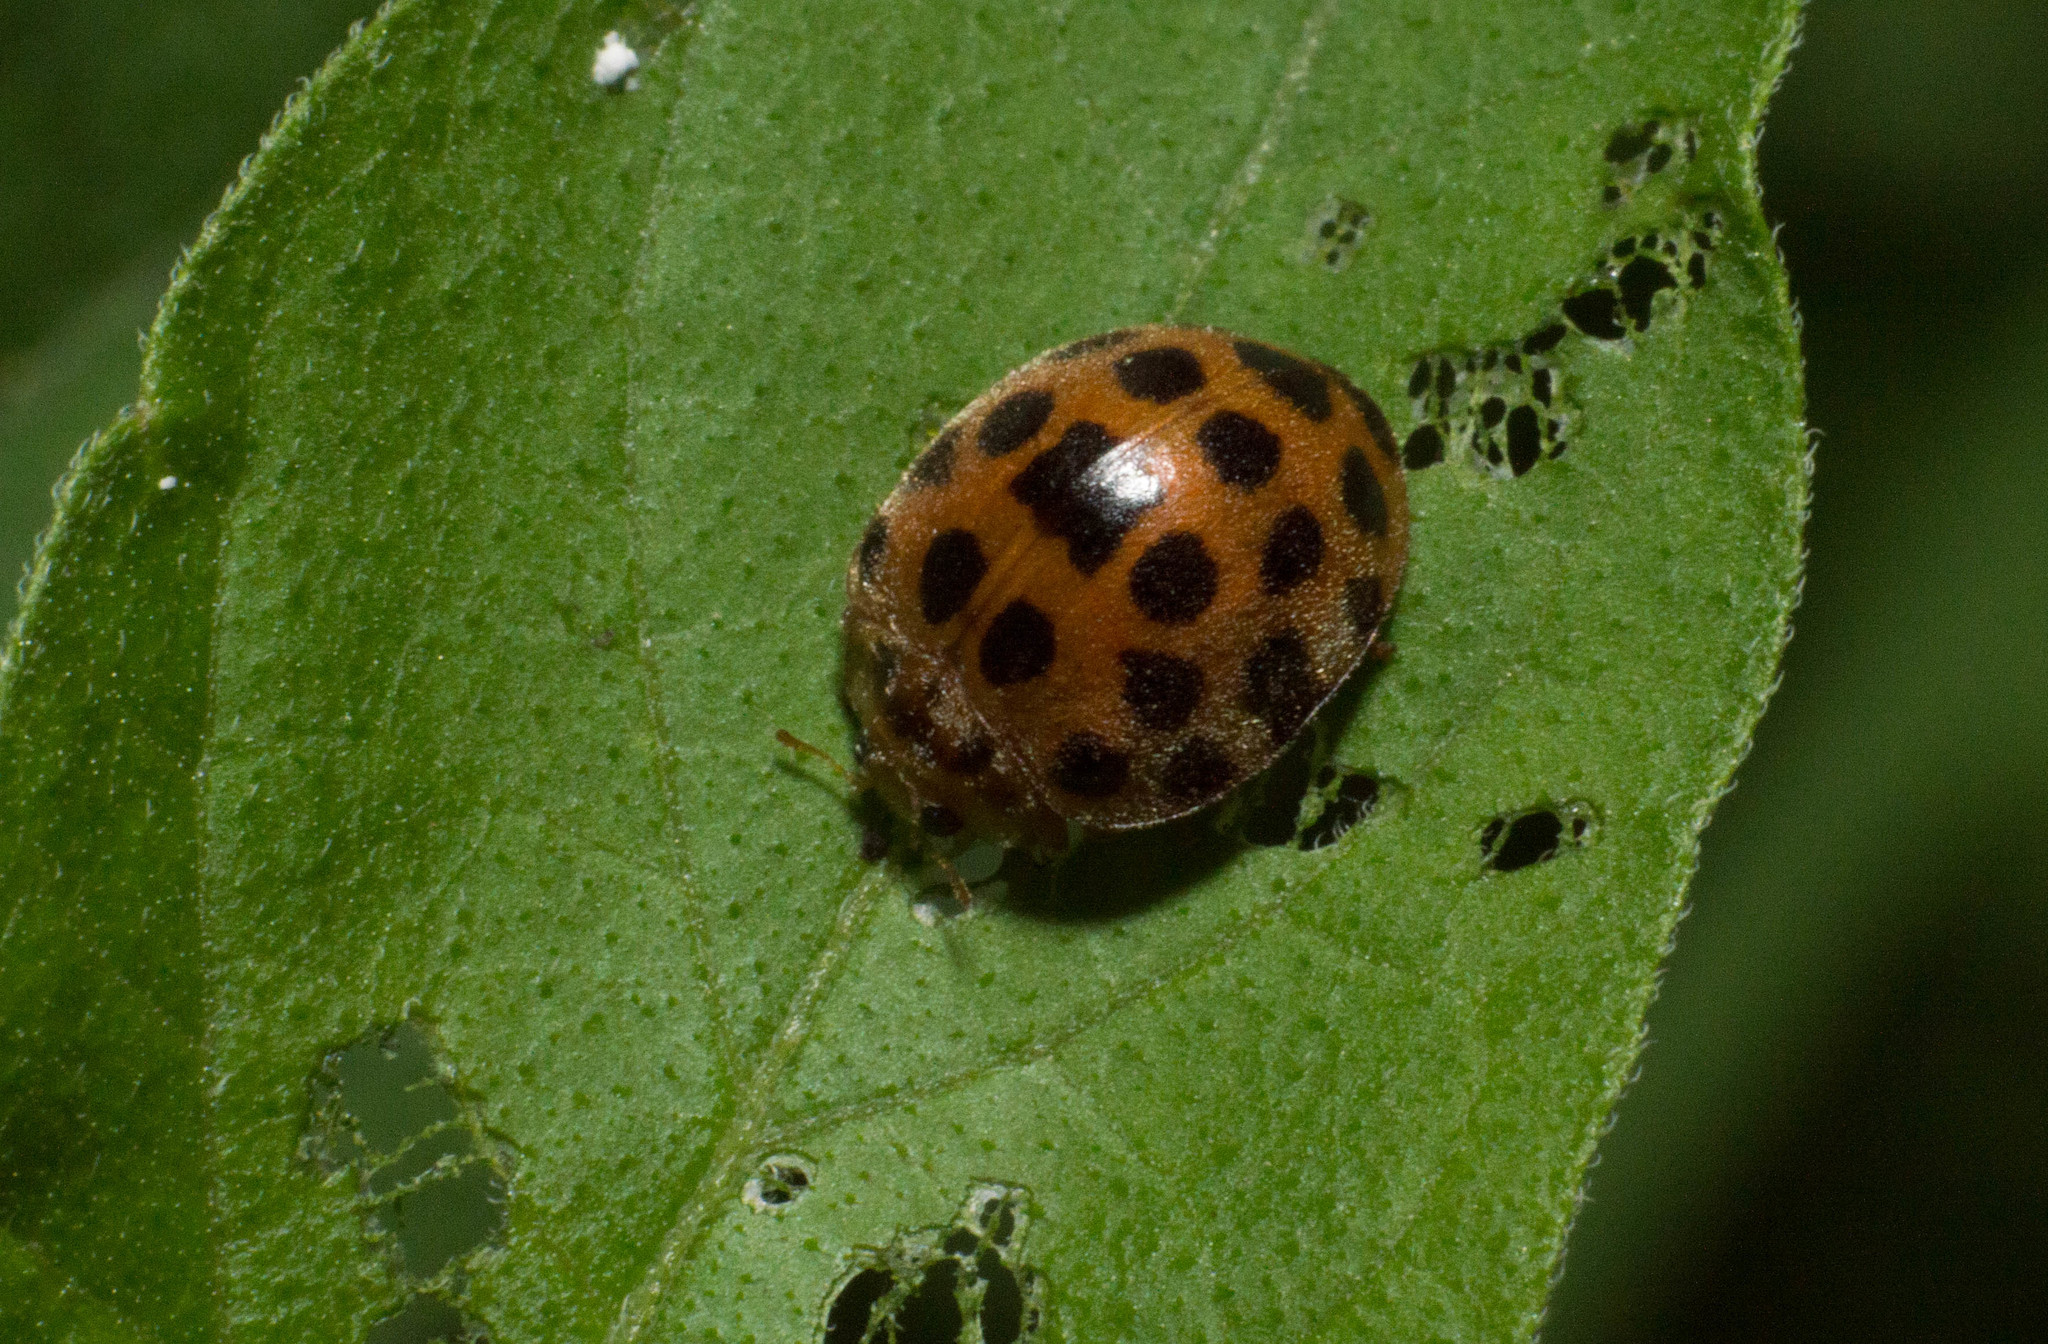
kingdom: Animalia
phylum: Arthropoda
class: Insecta
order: Coleoptera
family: Coccinellidae
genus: Henosepilachna
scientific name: Henosepilachna vigintioctopunctata
